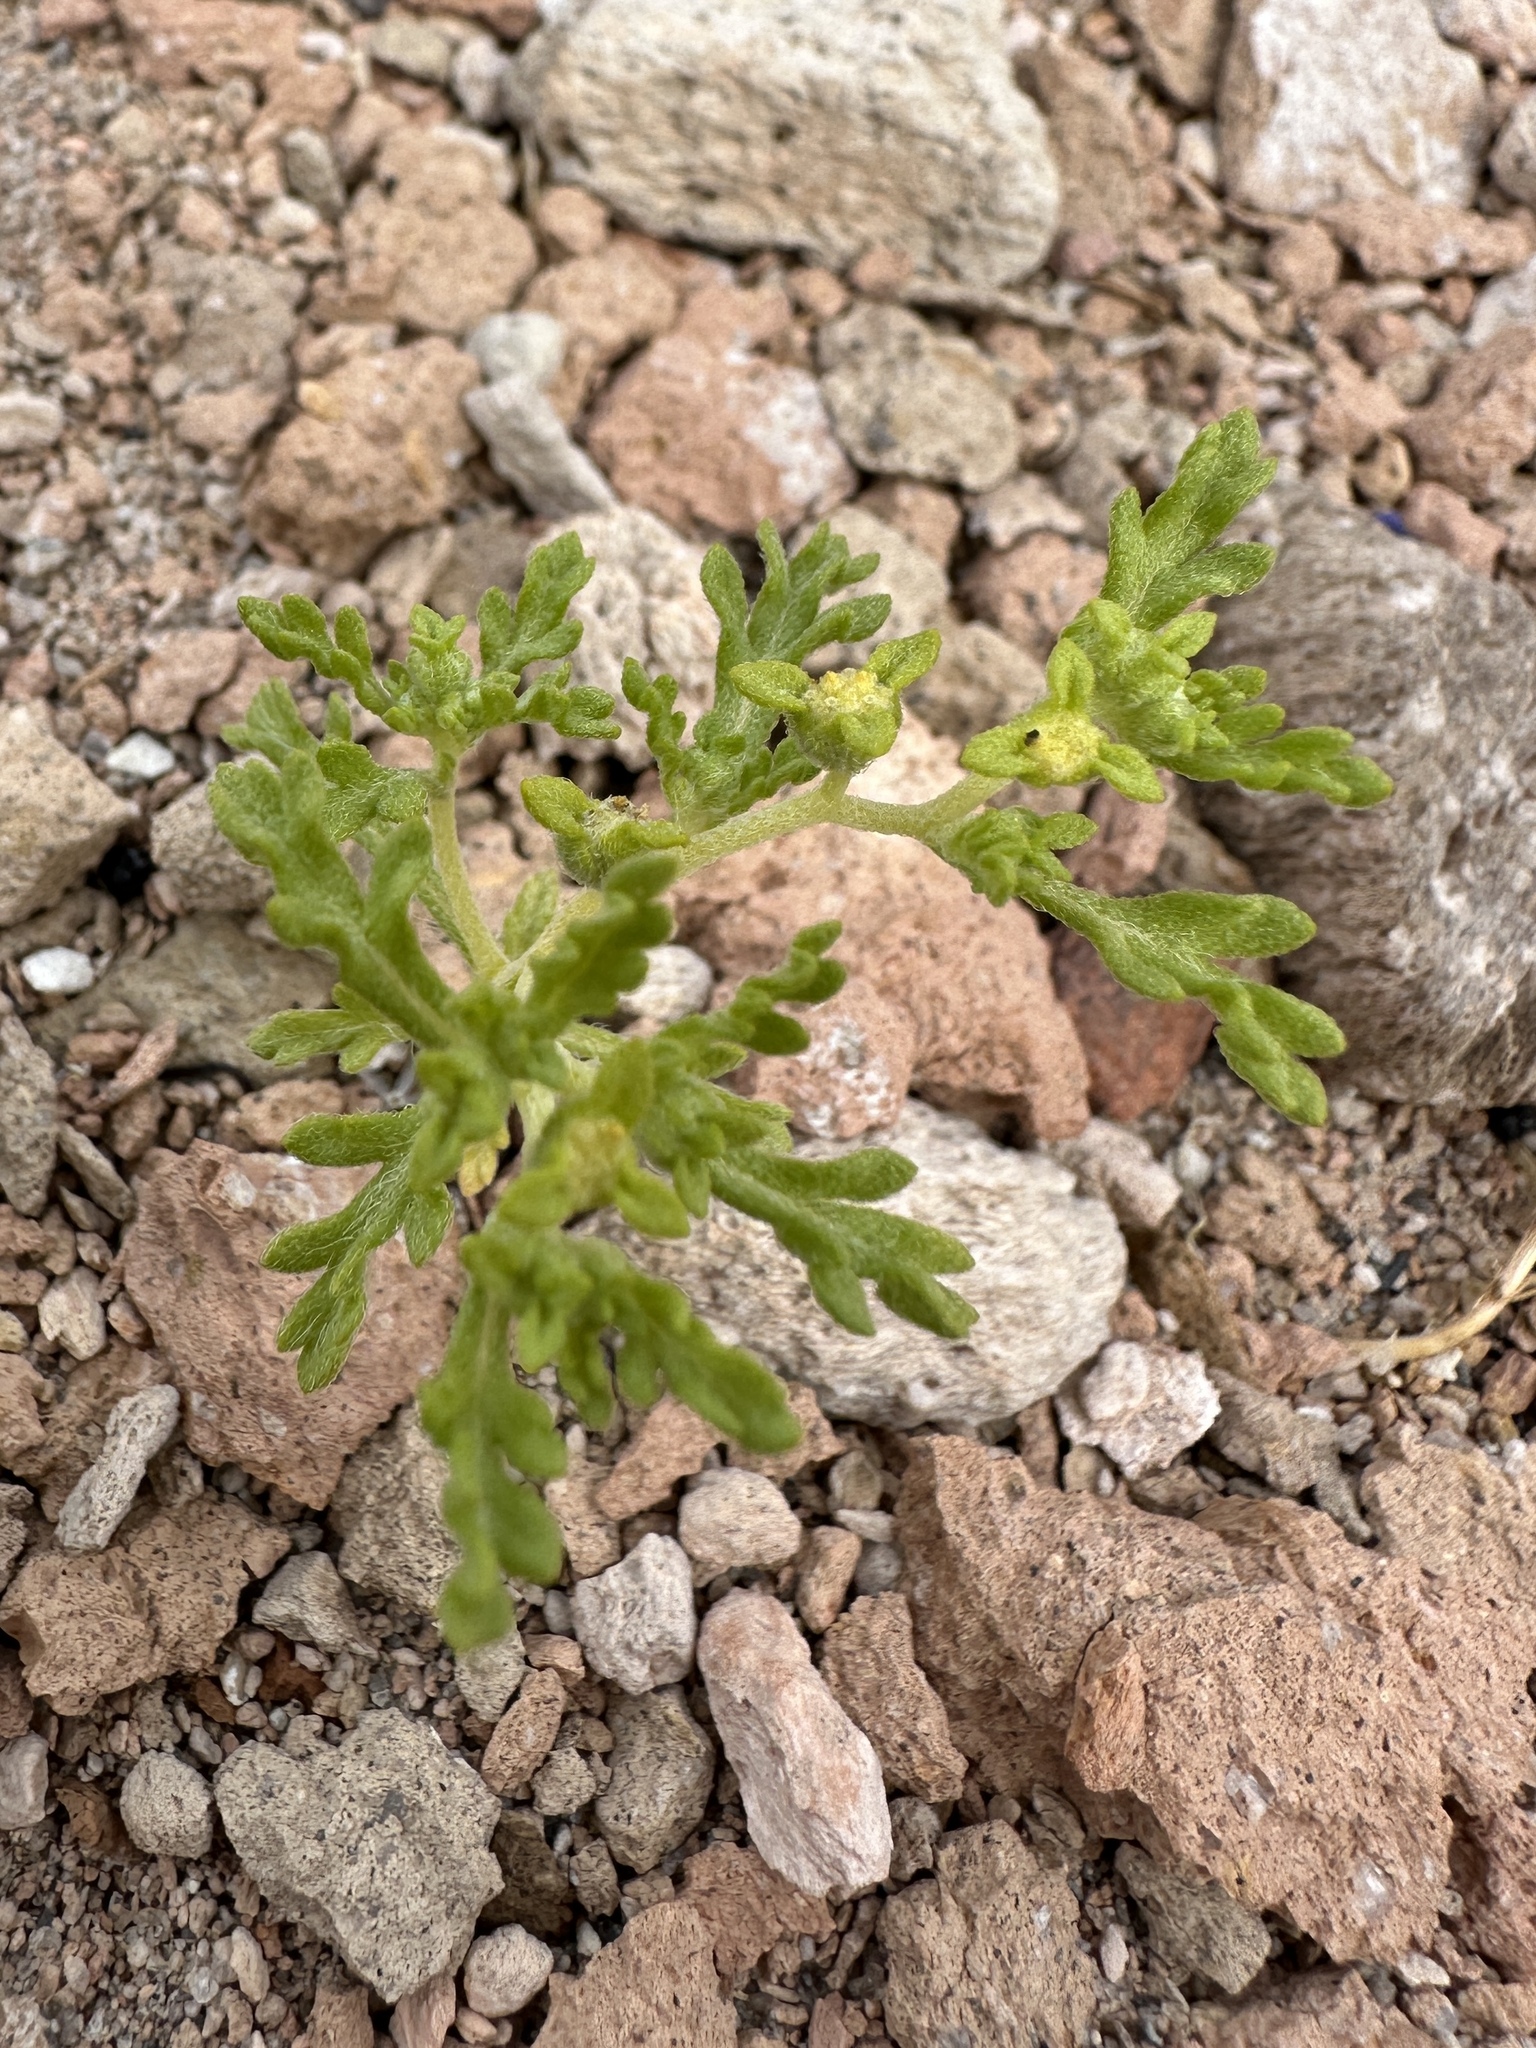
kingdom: Plantae
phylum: Tracheophyta
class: Magnoliopsida
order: Asterales
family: Asteraceae
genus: Euphrosyne
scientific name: Euphrosyne nevadensis
